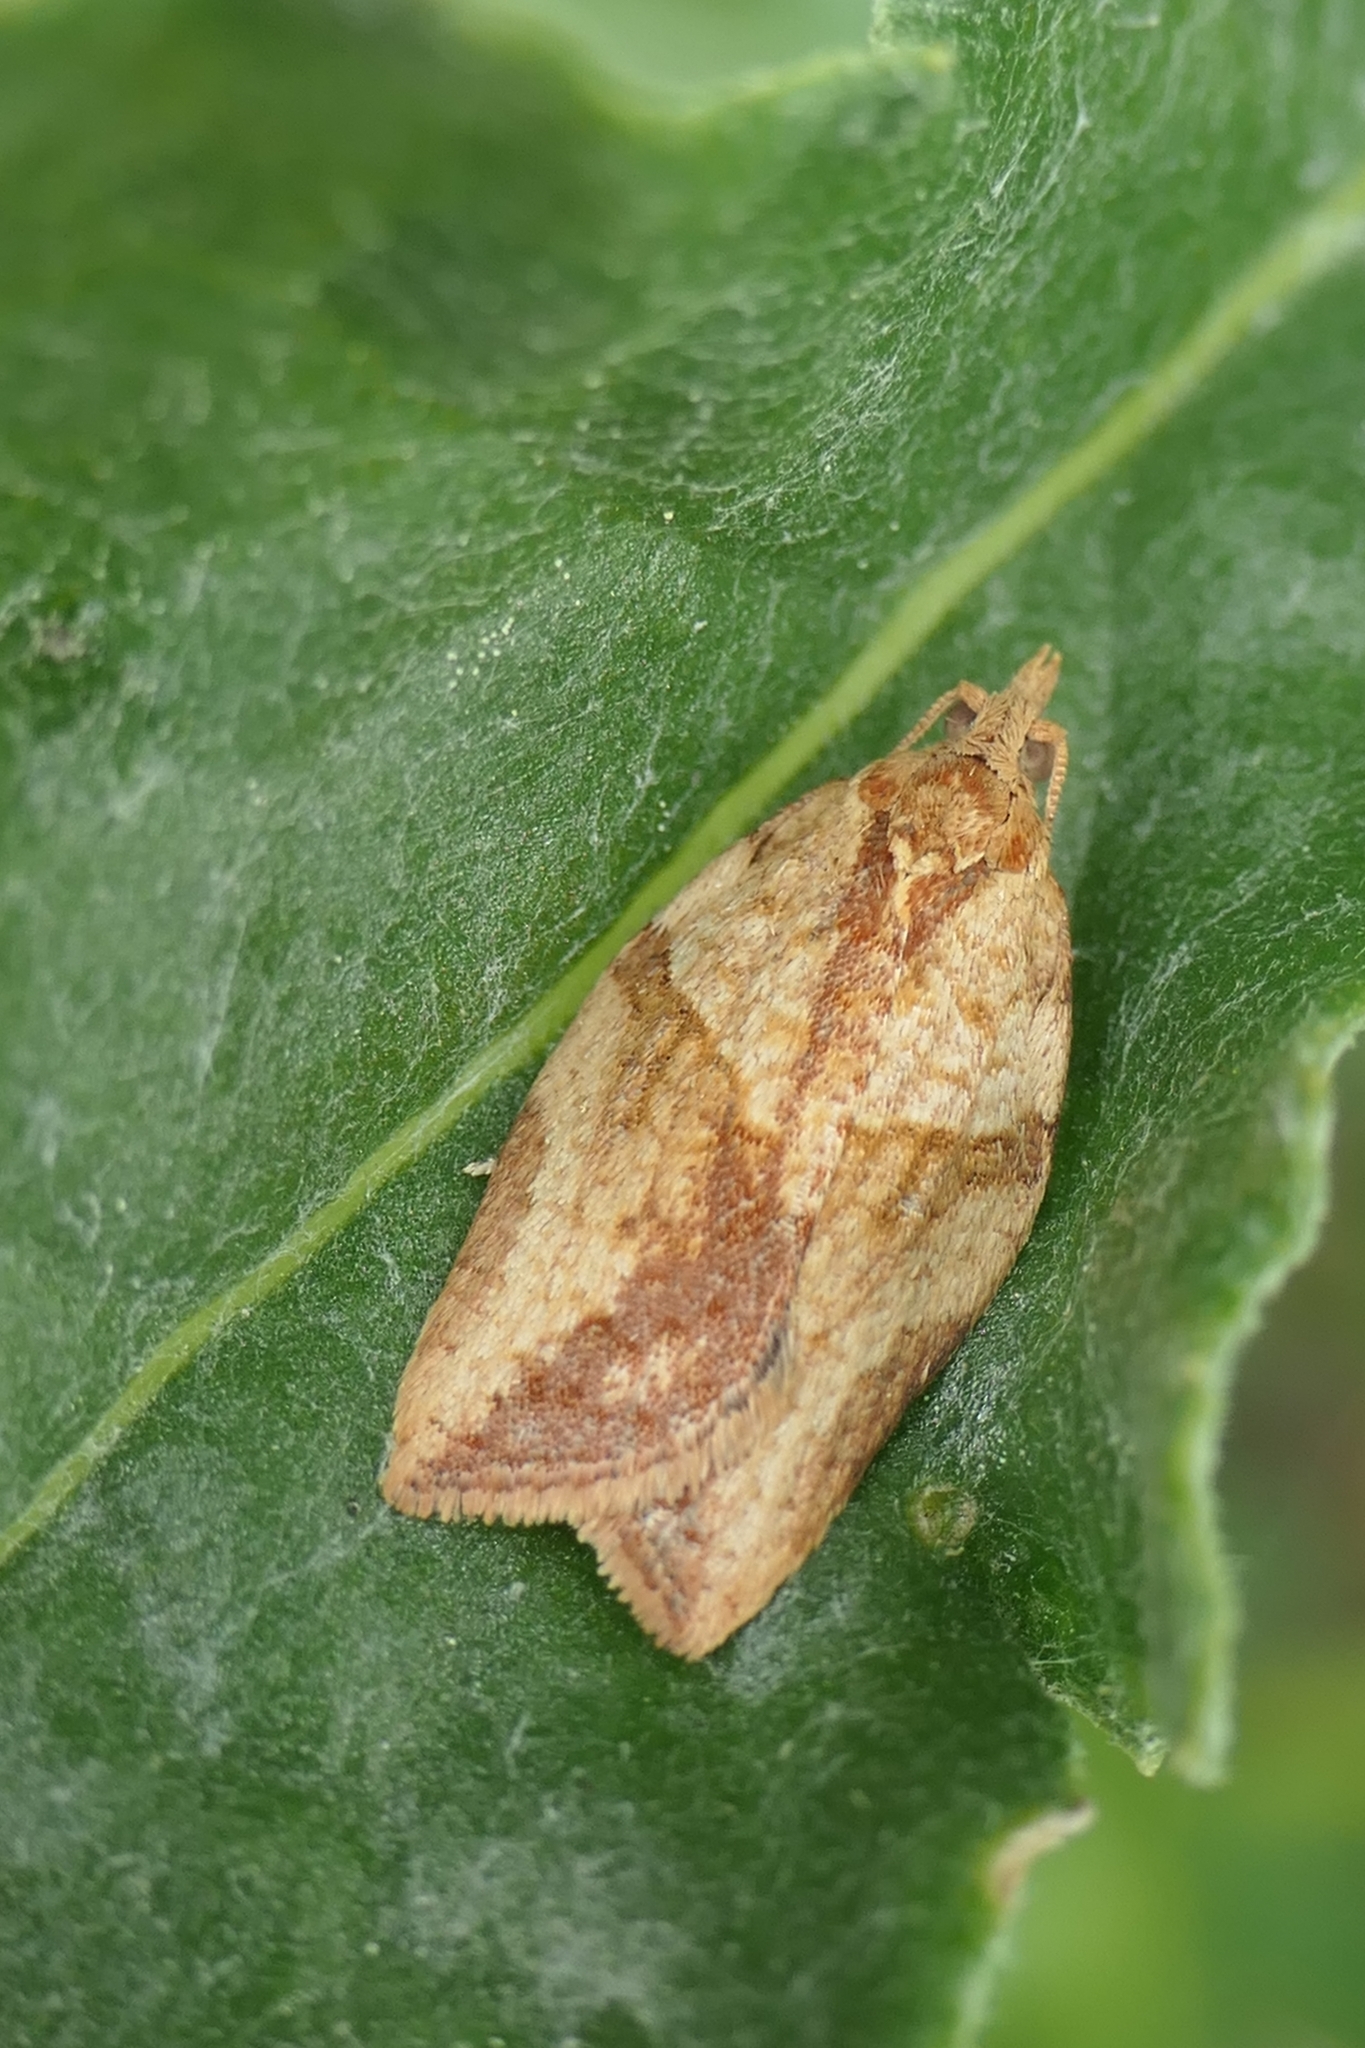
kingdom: Animalia
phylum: Arthropoda
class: Insecta
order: Lepidoptera
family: Tortricidae
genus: Epiphyas
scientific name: Epiphyas postvittana
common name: Light brown apple moth
